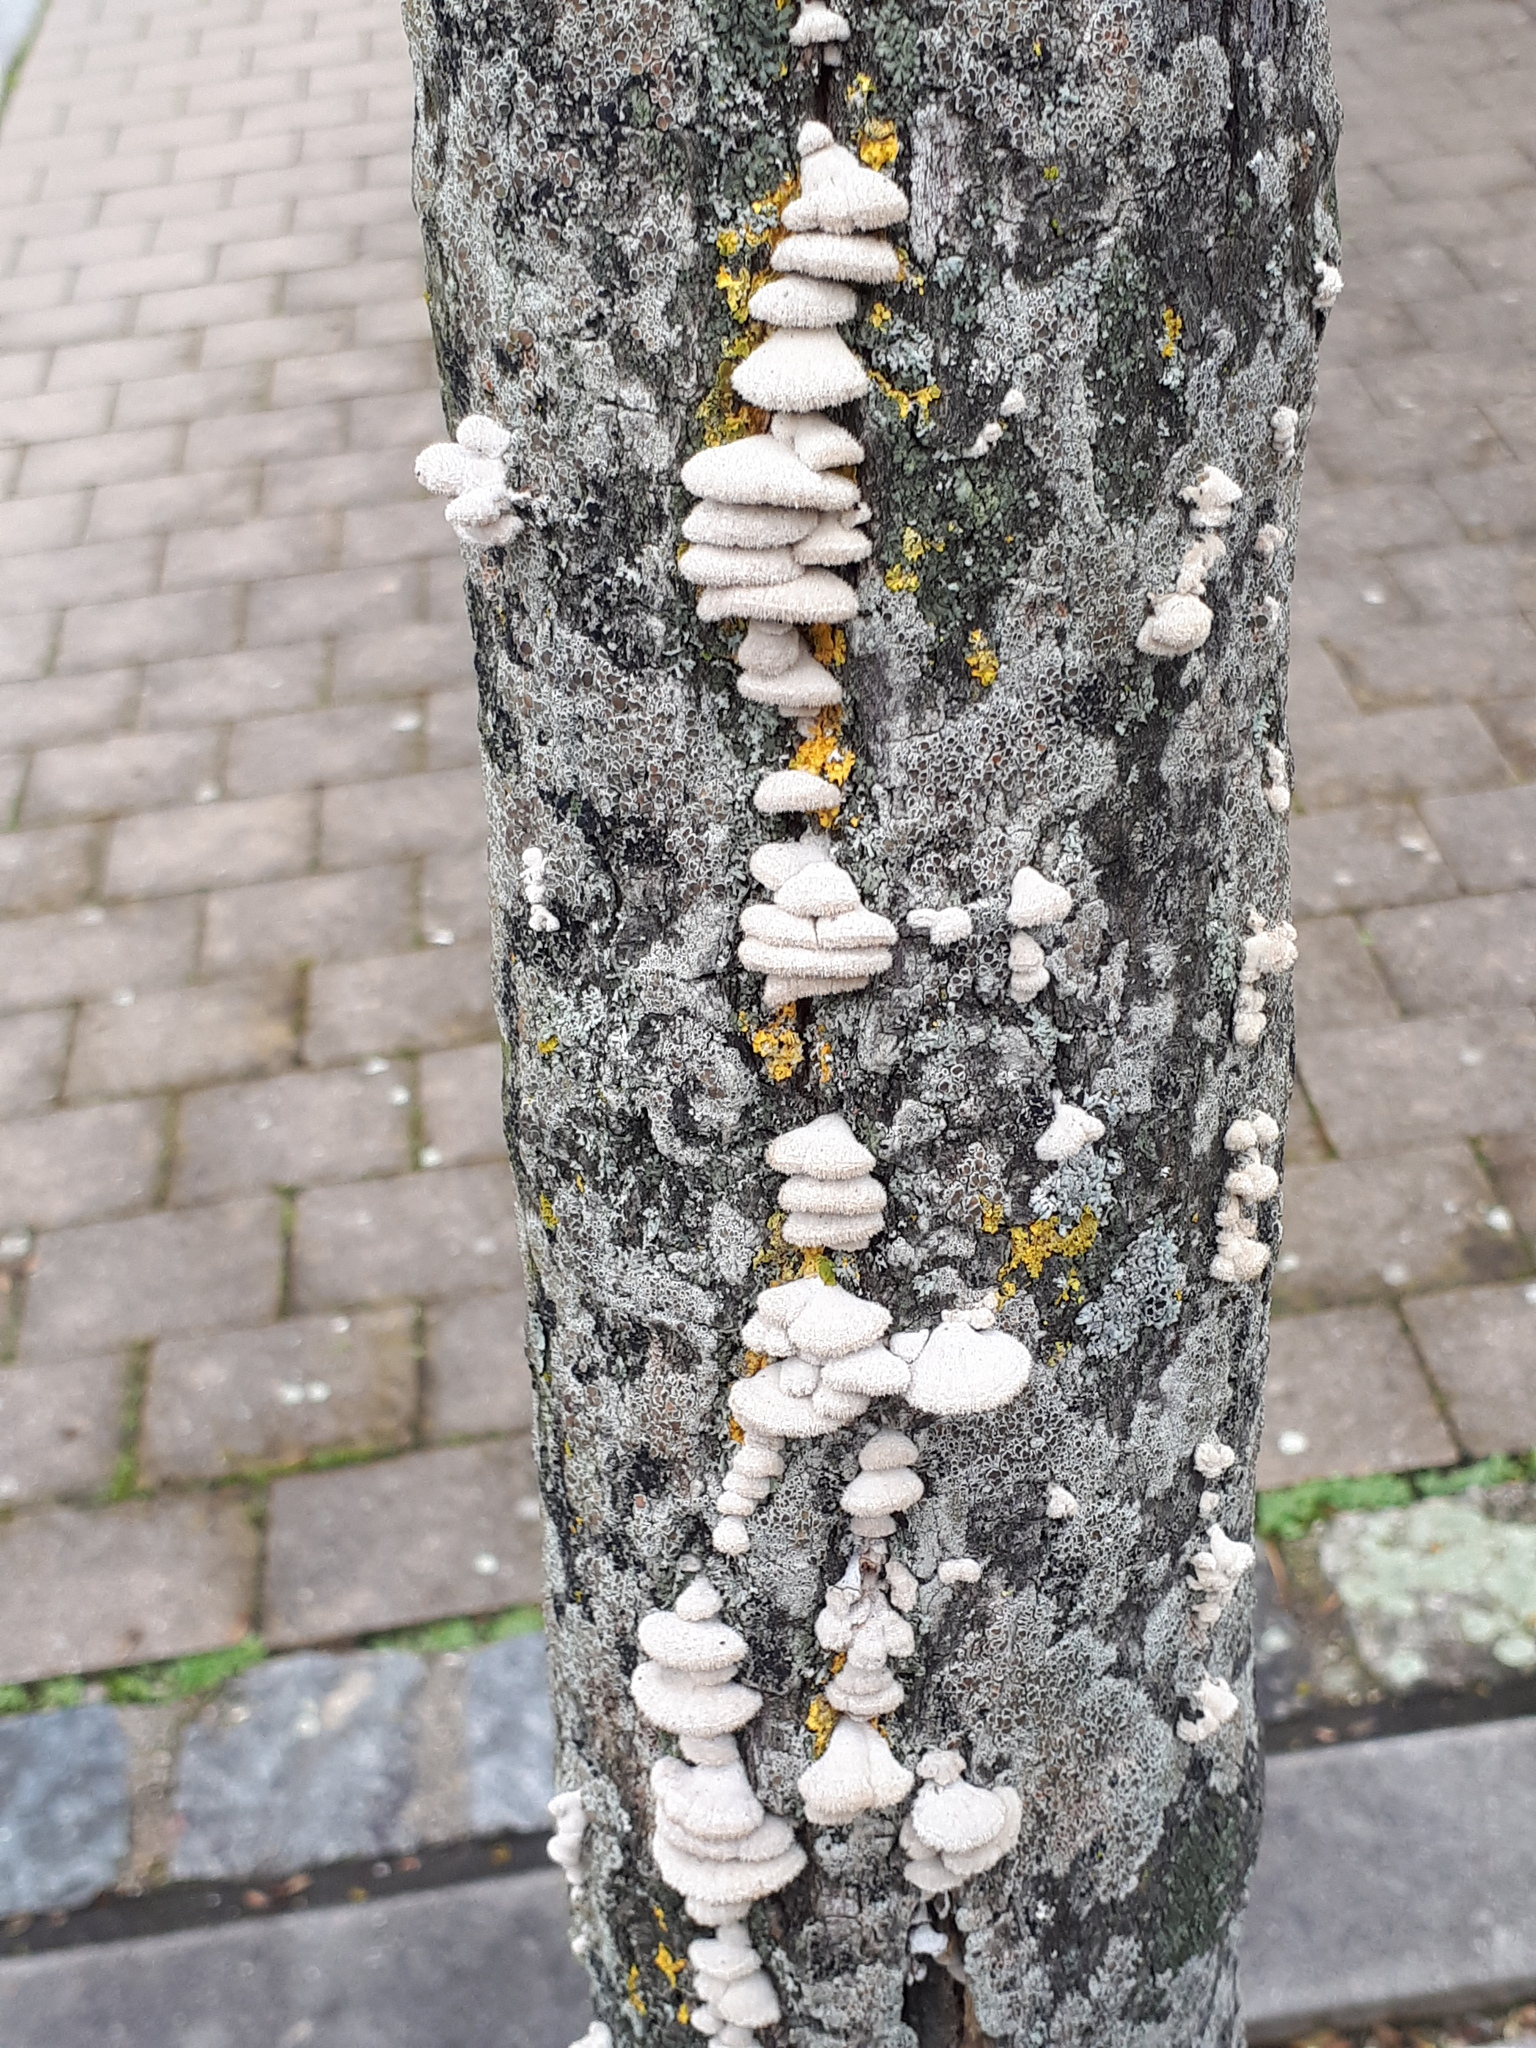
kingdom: Fungi
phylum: Basidiomycota
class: Agaricomycetes
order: Agaricales
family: Schizophyllaceae
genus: Schizophyllum
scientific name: Schizophyllum commune
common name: Common porecrust
